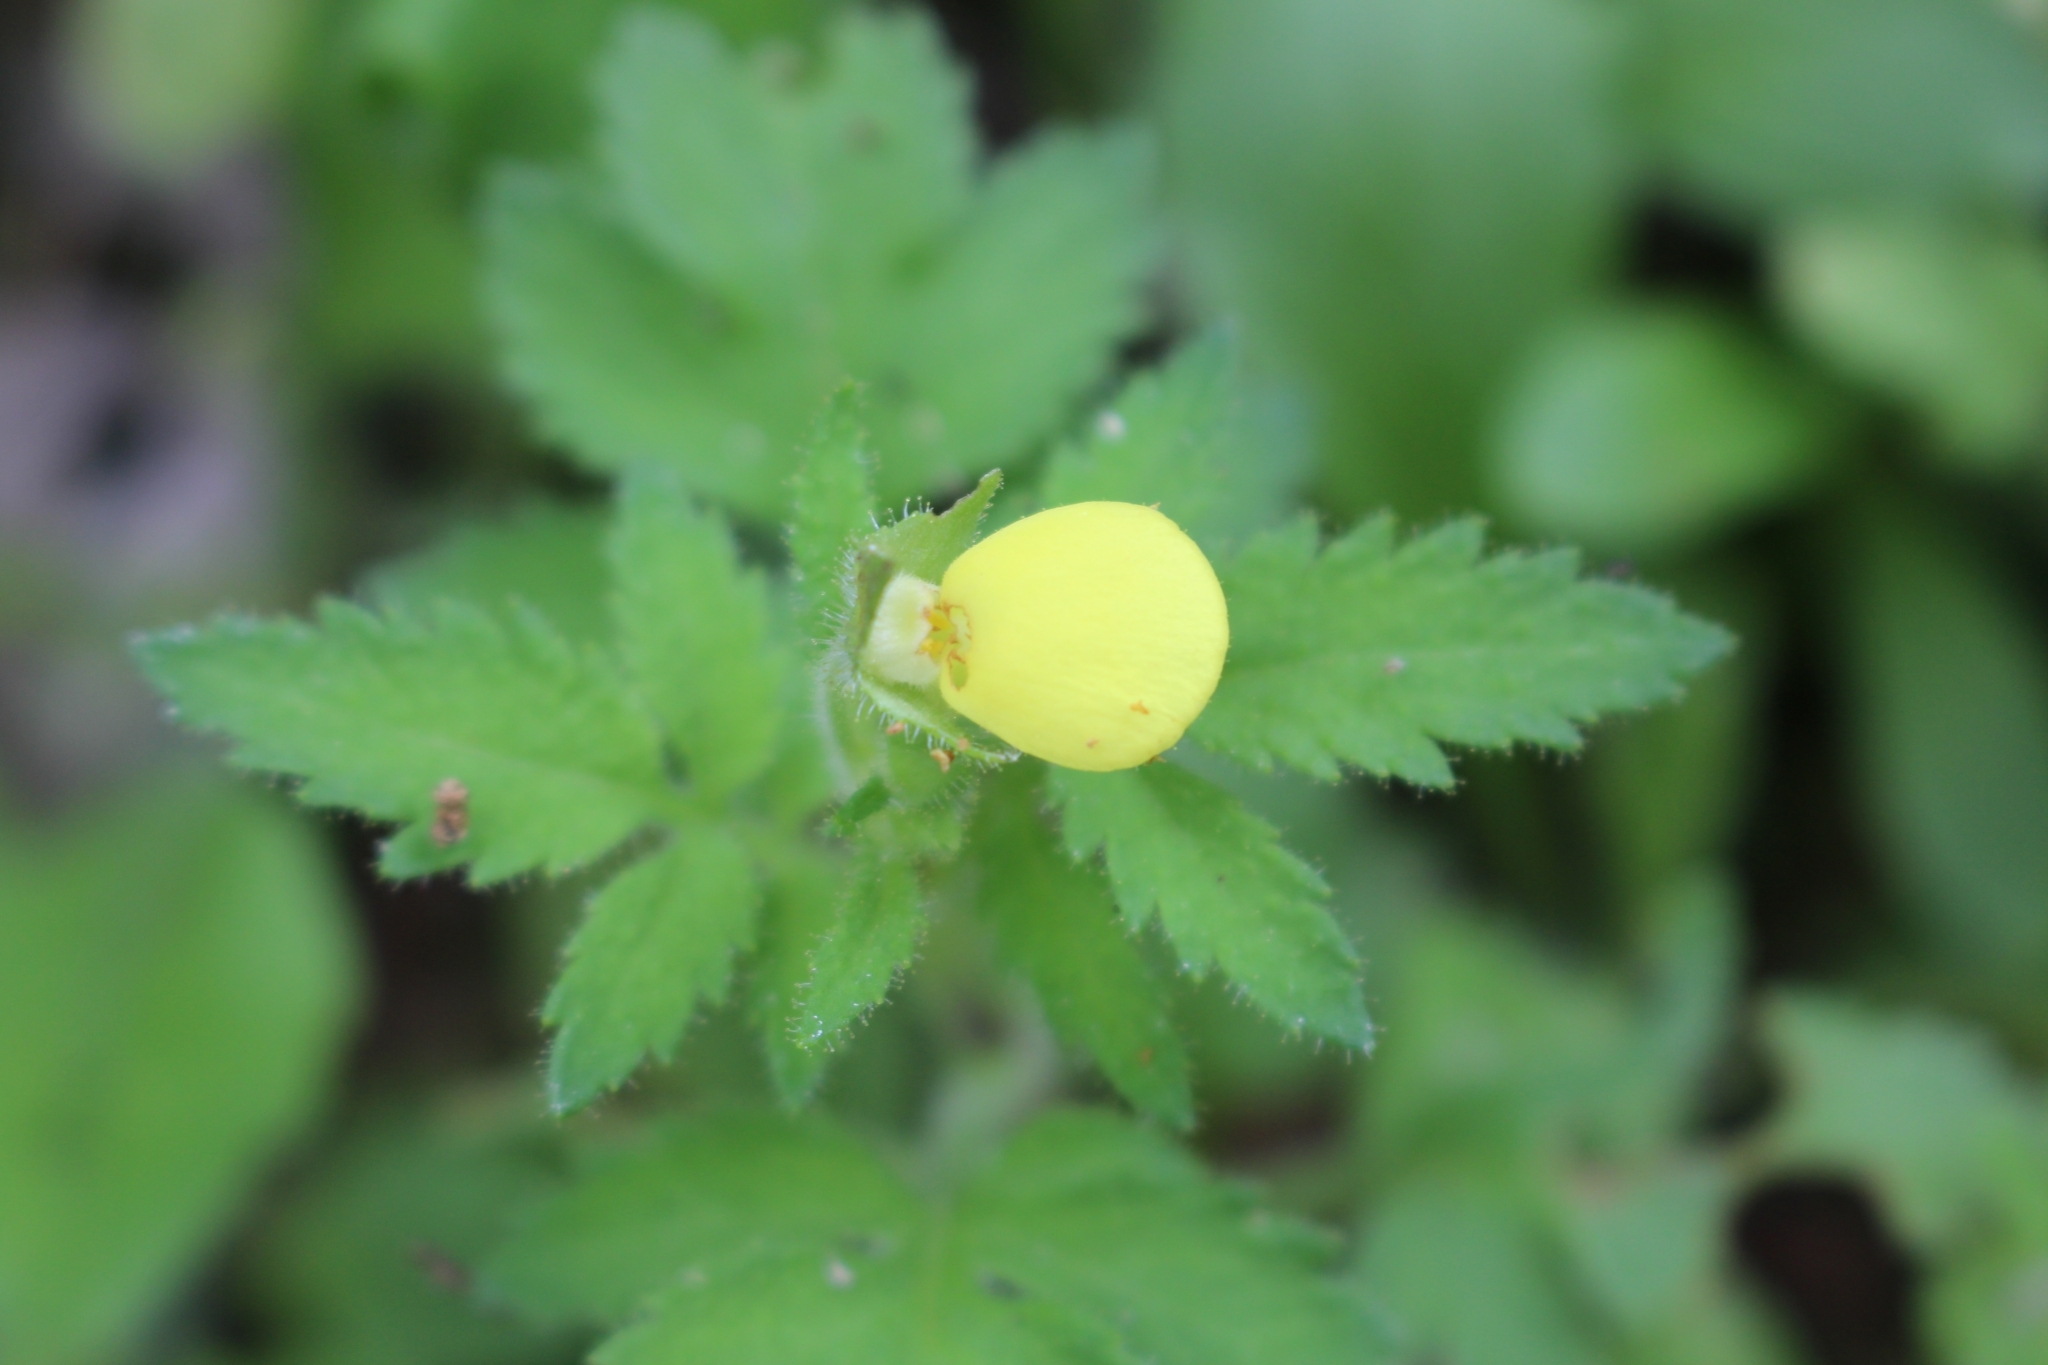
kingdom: Plantae
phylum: Tracheophyta
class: Magnoliopsida
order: Lamiales
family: Calceolariaceae
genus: Calceolaria
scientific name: Calceolaria tripartita
